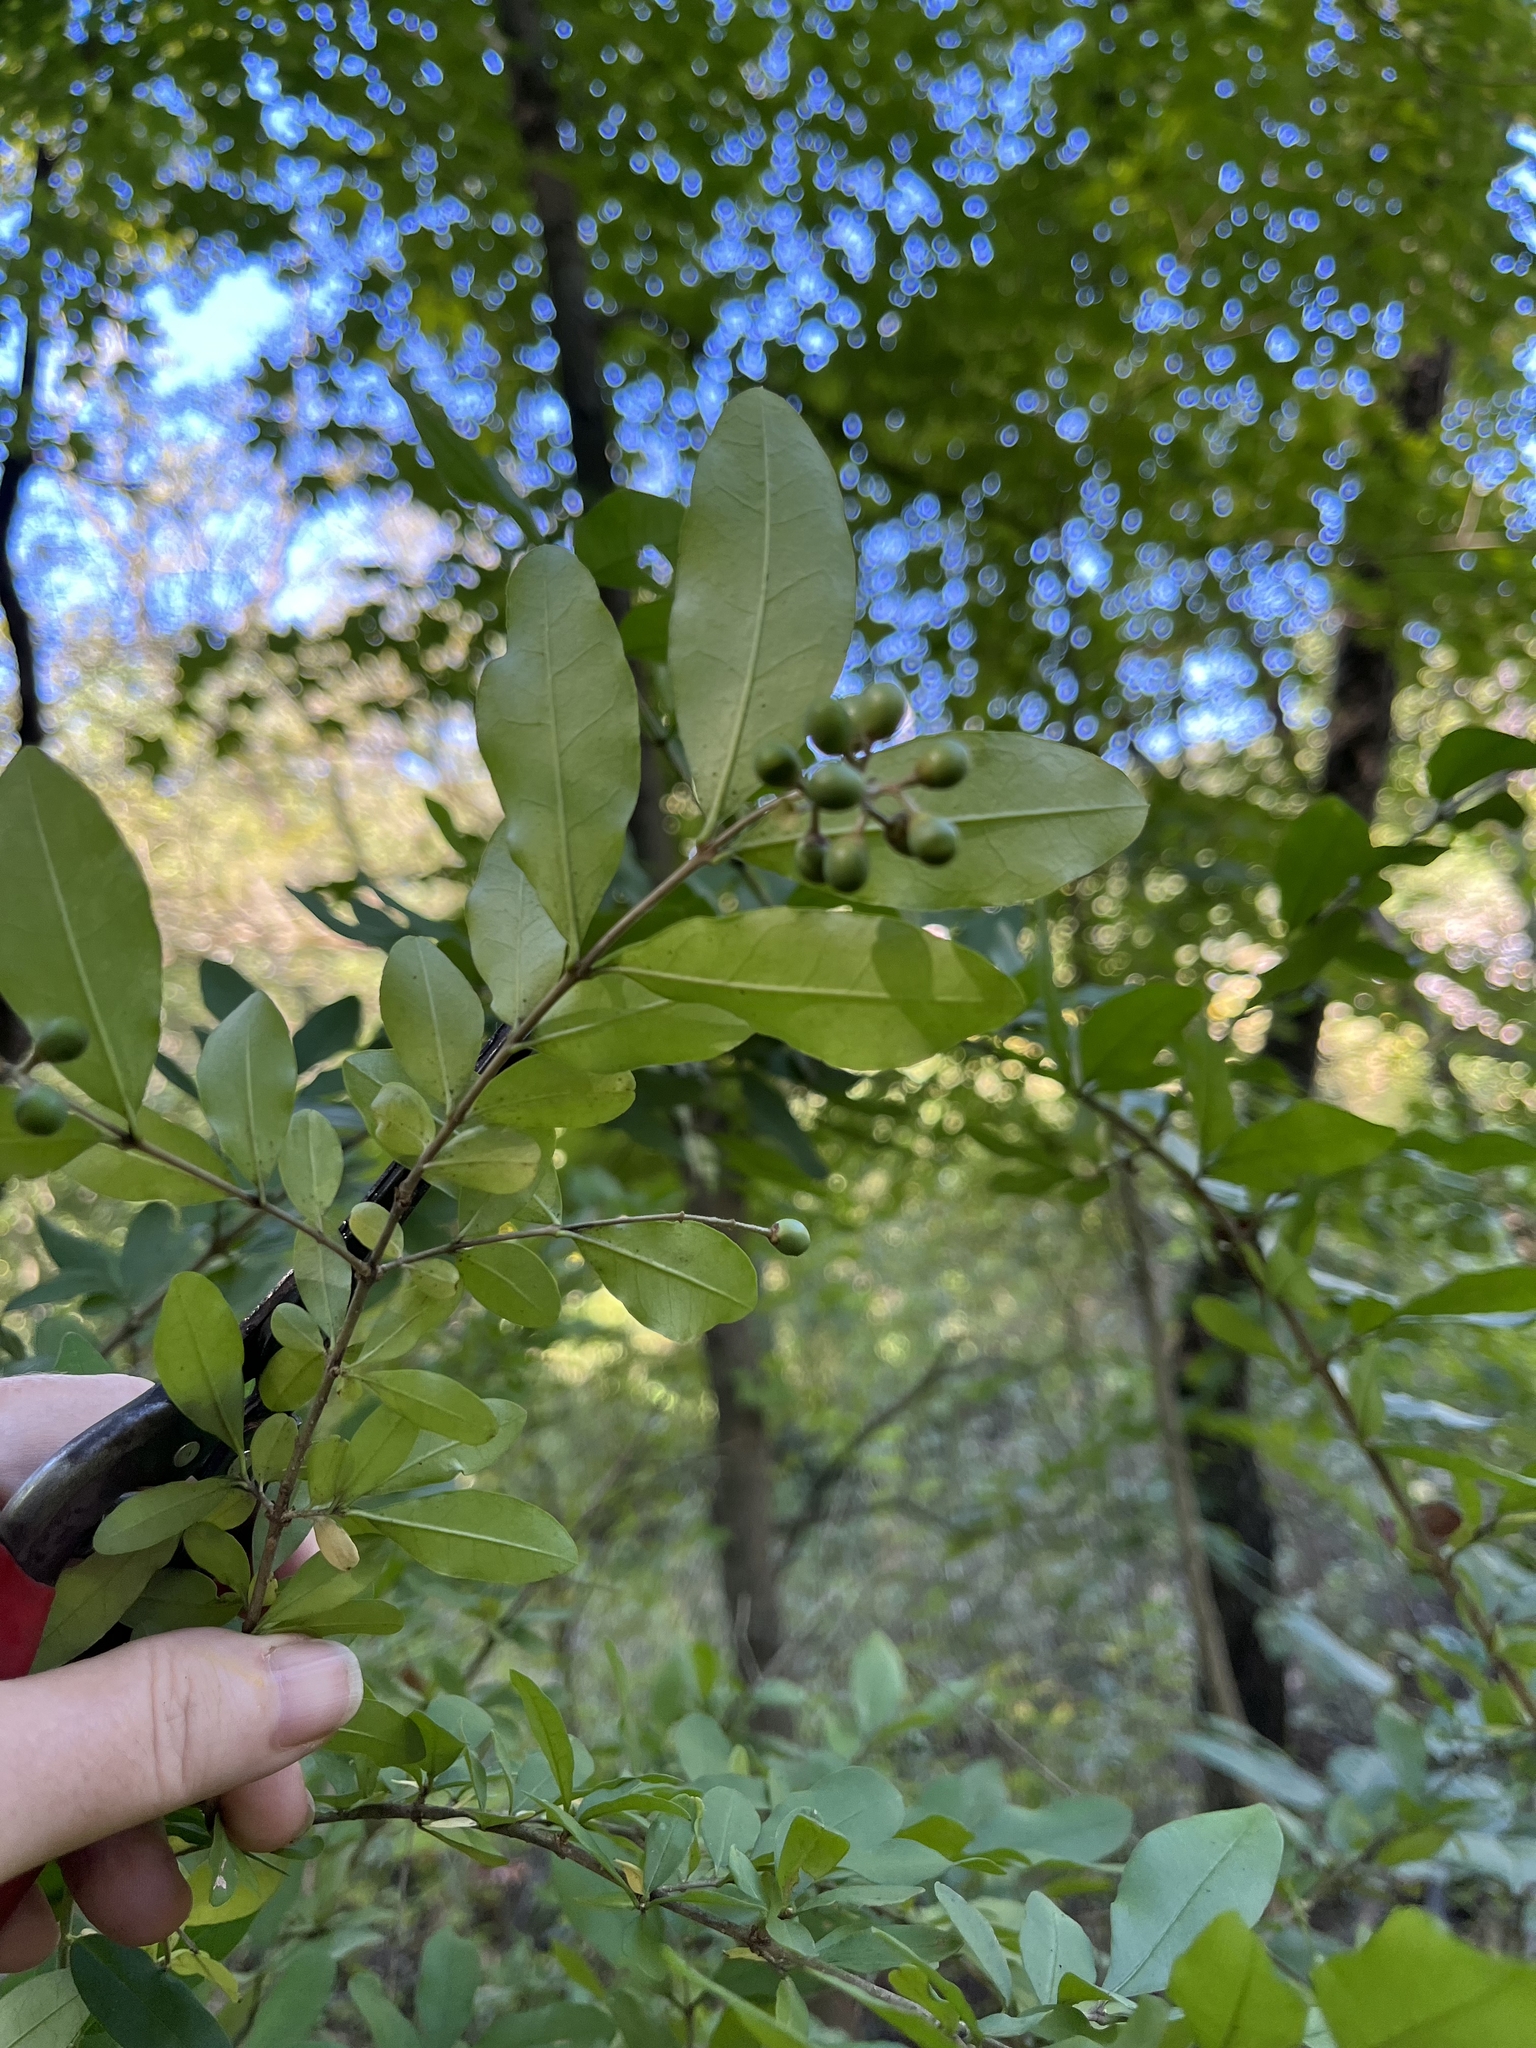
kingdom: Plantae
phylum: Tracheophyta
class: Magnoliopsida
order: Lamiales
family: Oleaceae
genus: Ligustrum
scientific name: Ligustrum obtusifolium
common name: Border privet
